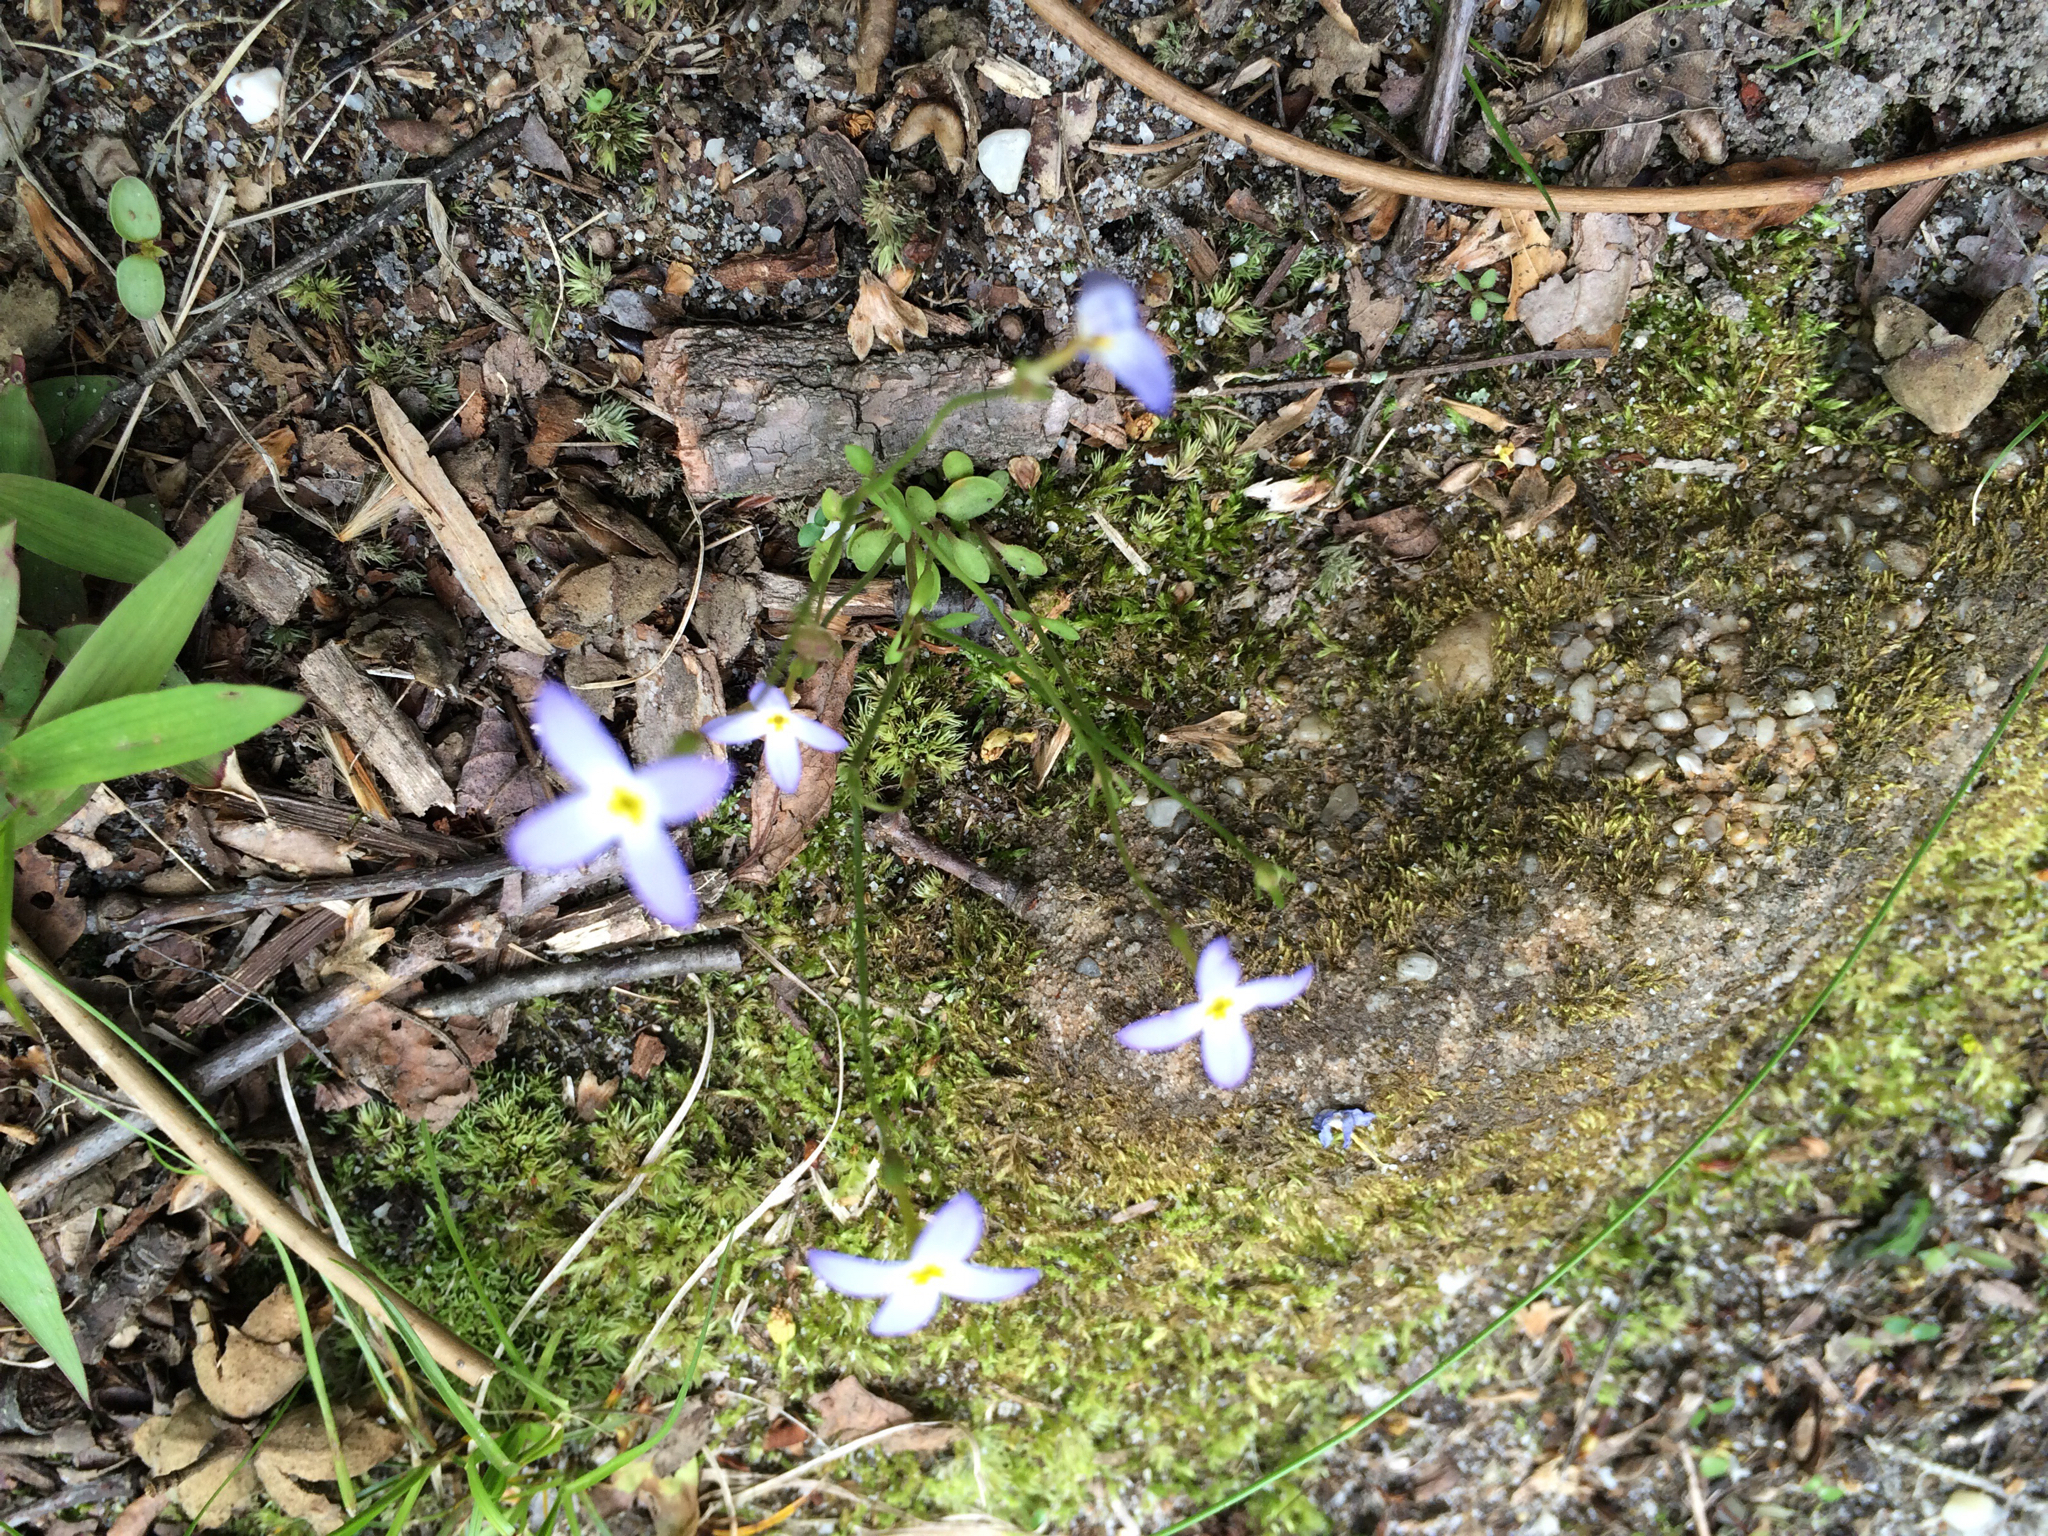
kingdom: Plantae
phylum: Tracheophyta
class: Magnoliopsida
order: Gentianales
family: Rubiaceae
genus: Houstonia
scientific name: Houstonia caerulea
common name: Bluets
